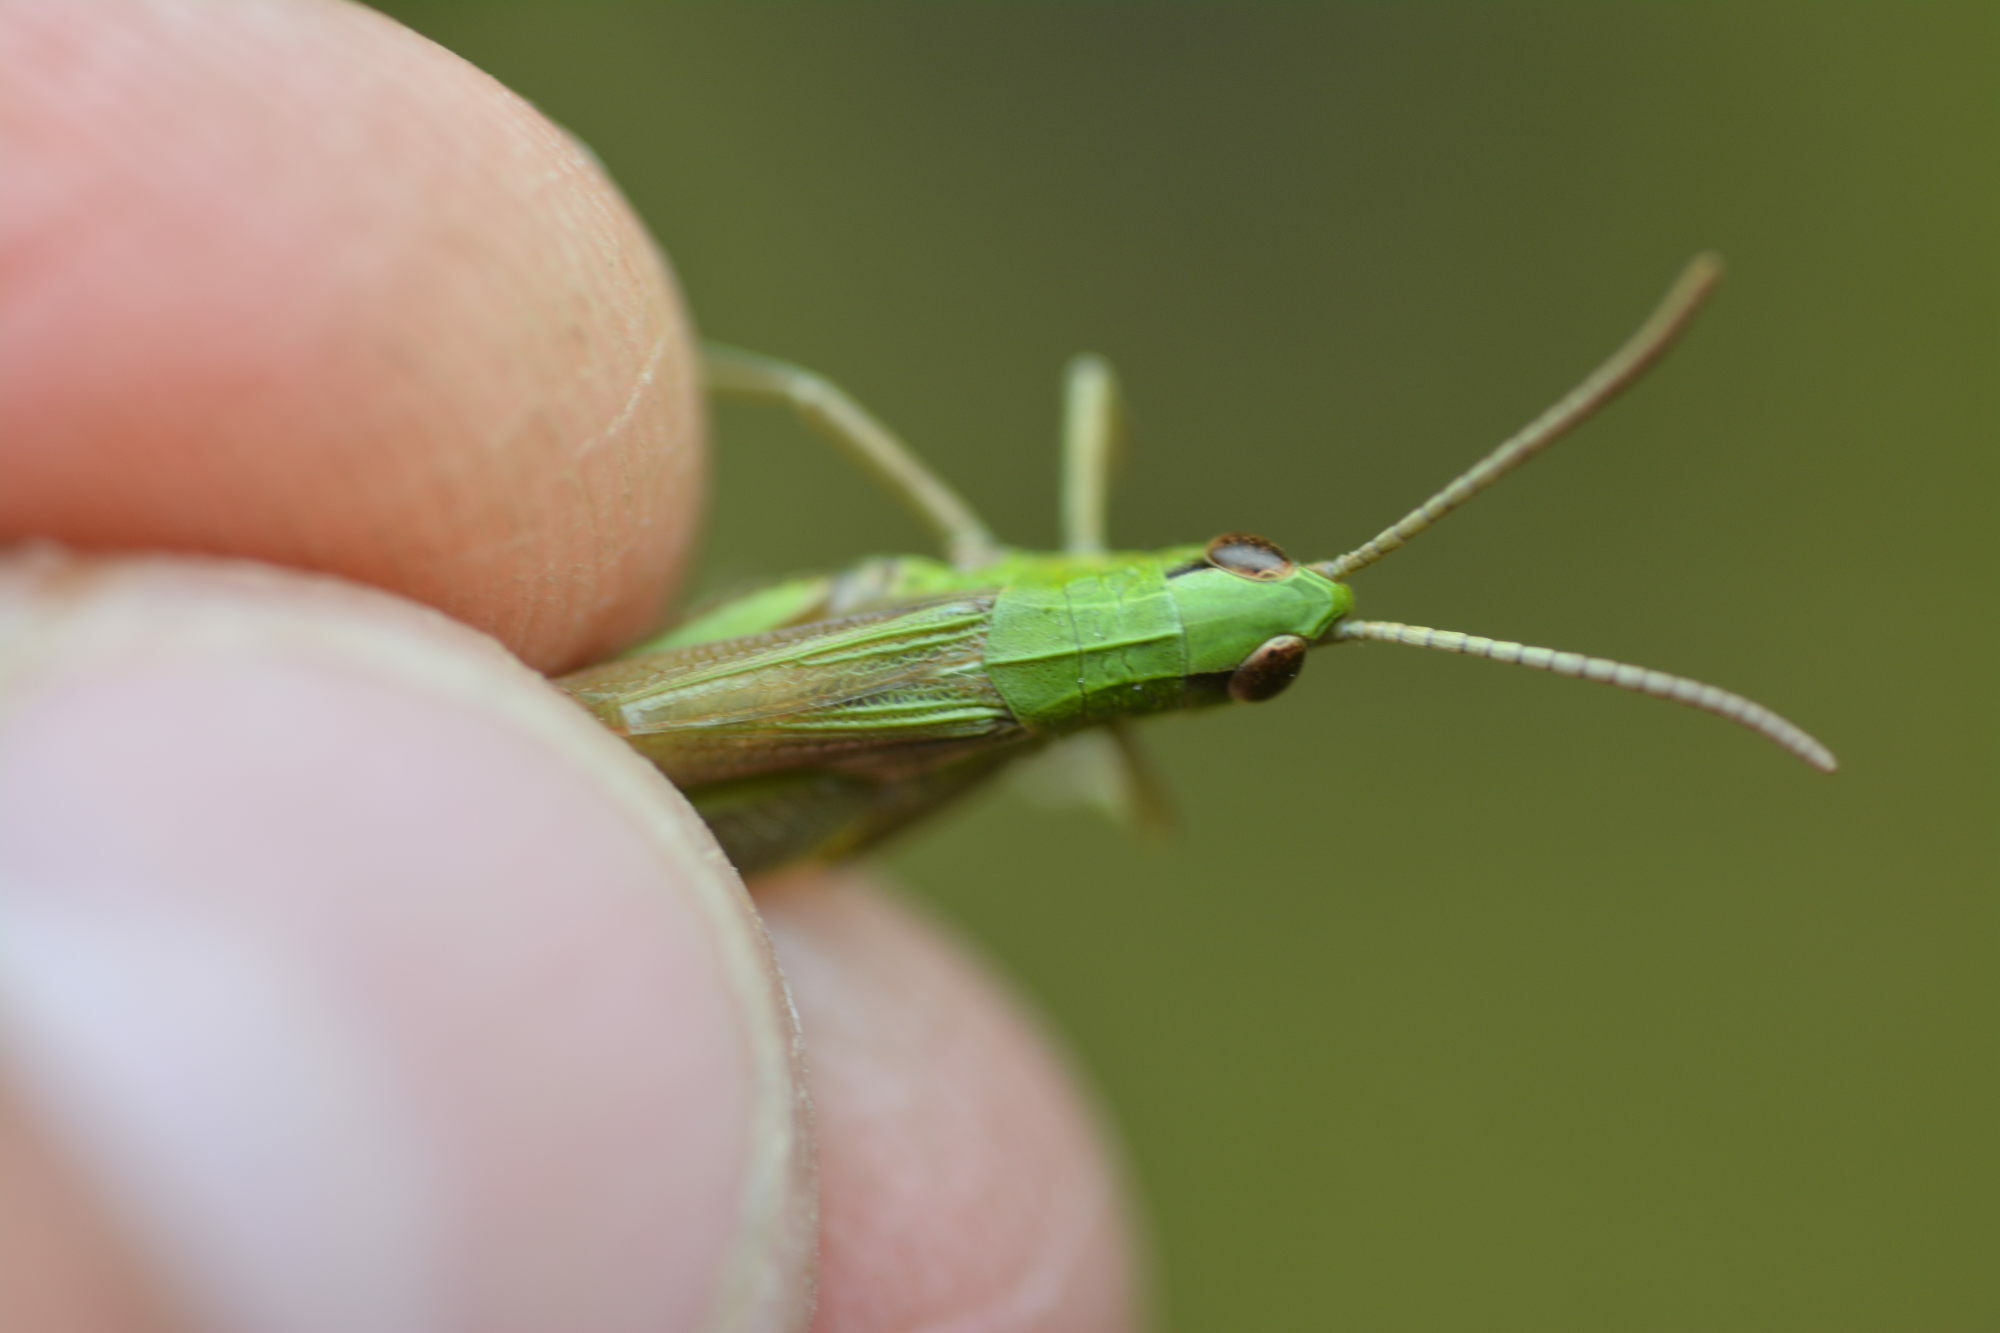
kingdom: Animalia
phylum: Arthropoda
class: Insecta
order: Orthoptera
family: Acrididae
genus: Pseudochorthippus
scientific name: Pseudochorthippus parallelus
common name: Meadow grasshopper
